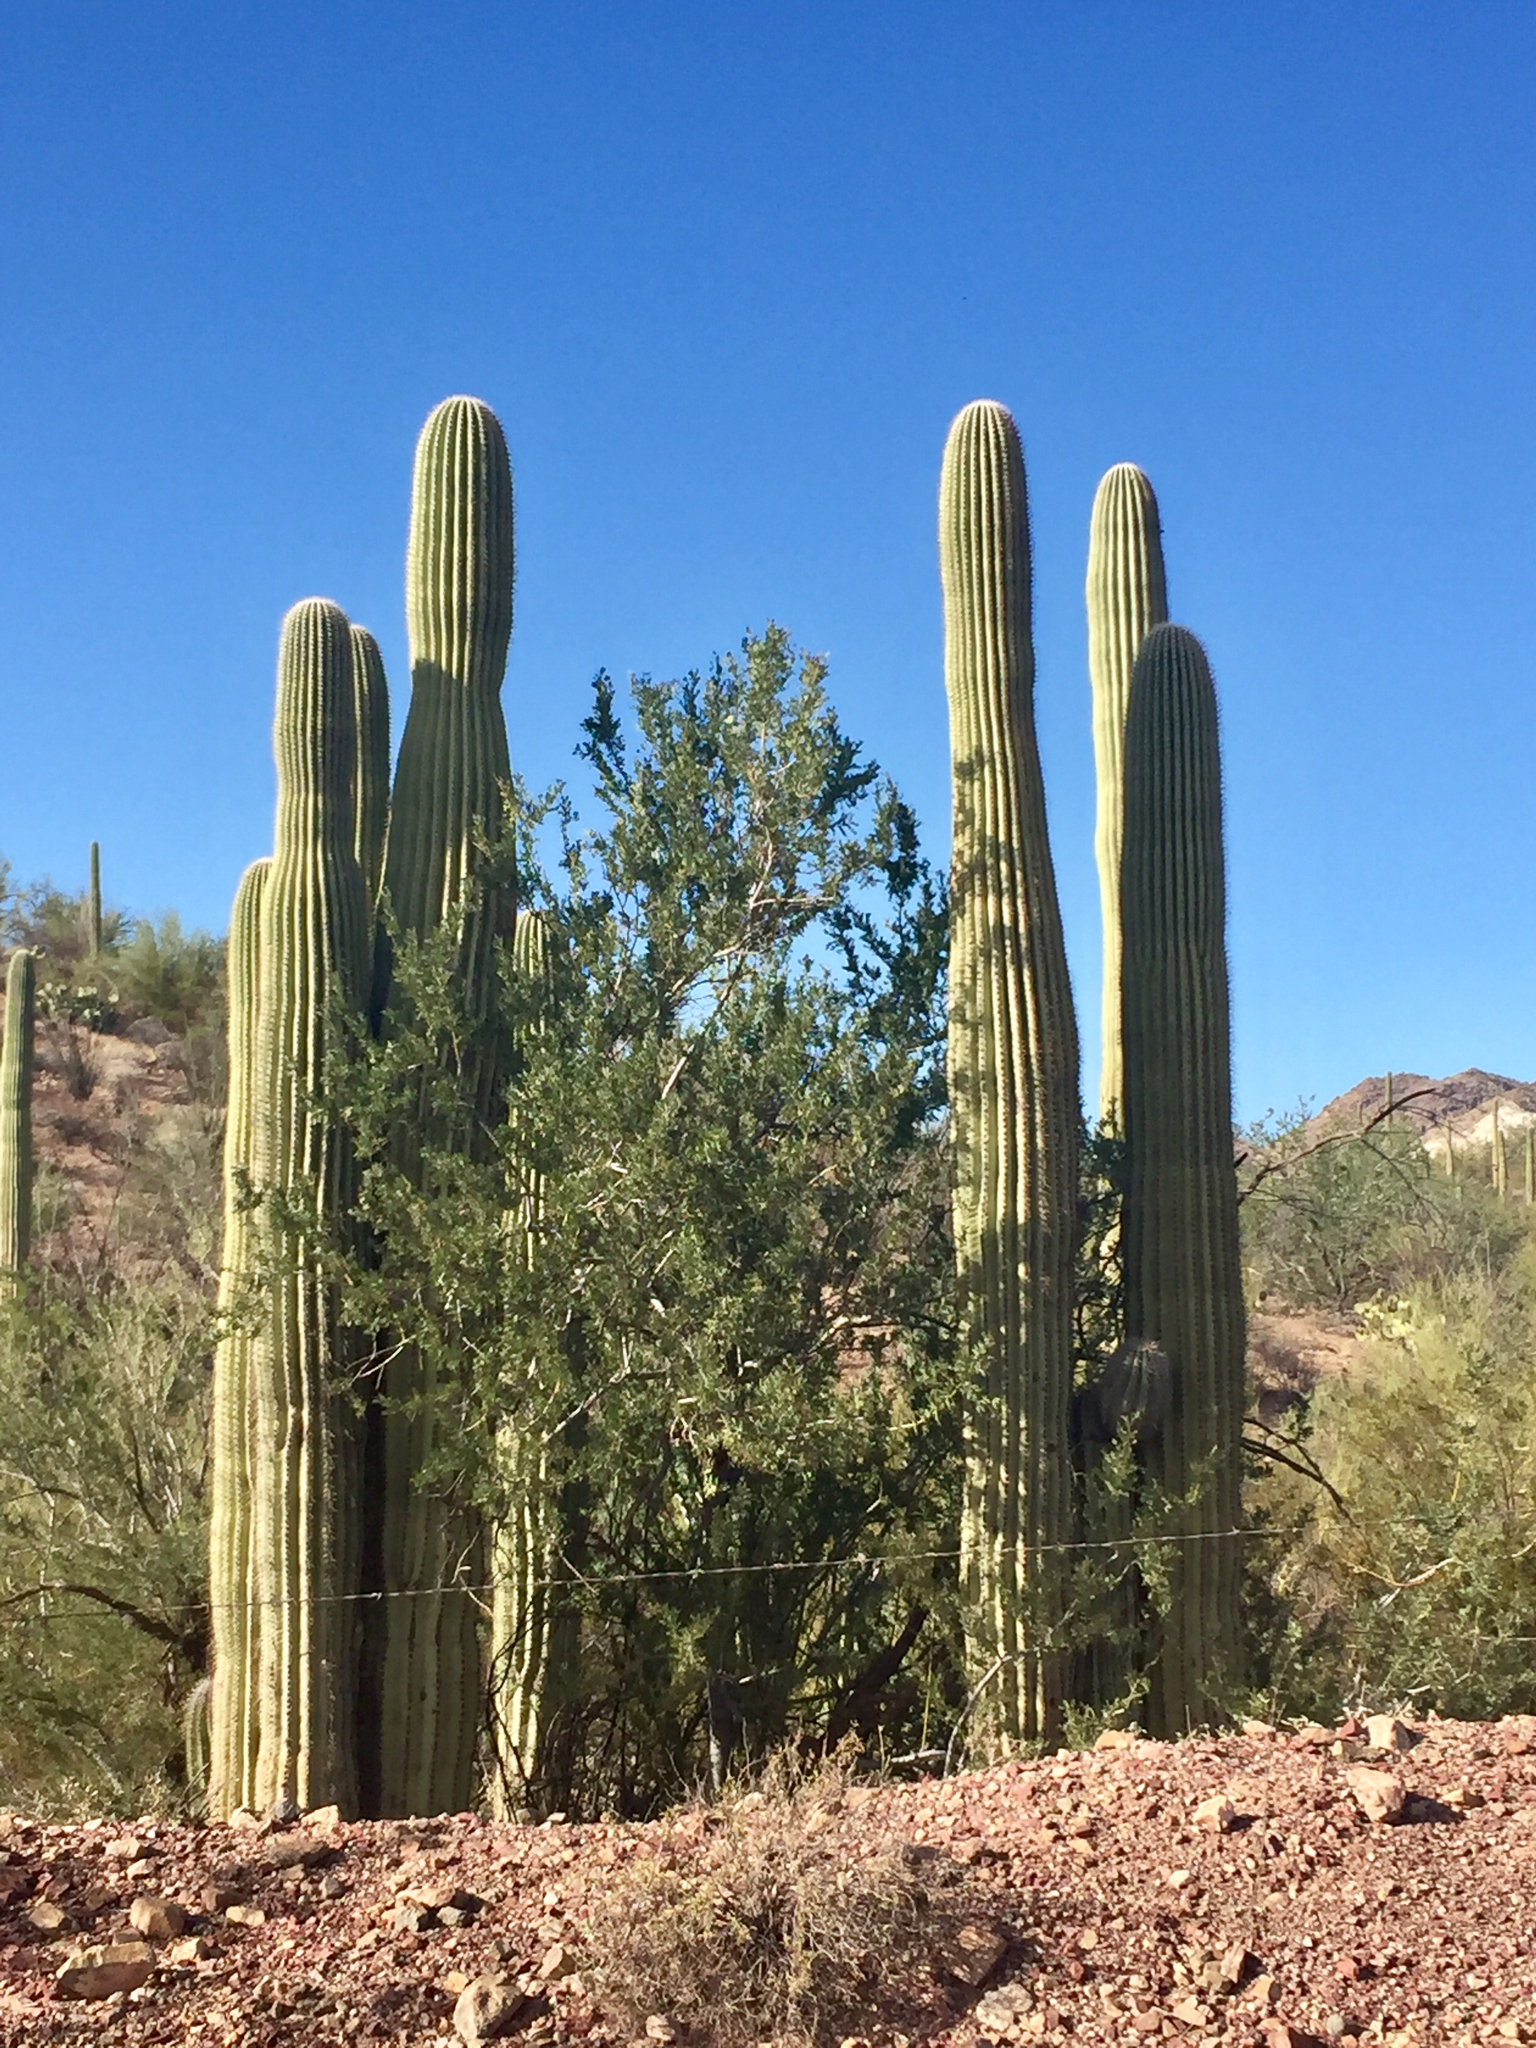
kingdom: Plantae
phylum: Tracheophyta
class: Magnoliopsida
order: Caryophyllales
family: Cactaceae
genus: Carnegiea
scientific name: Carnegiea gigantea
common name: Saguaro
